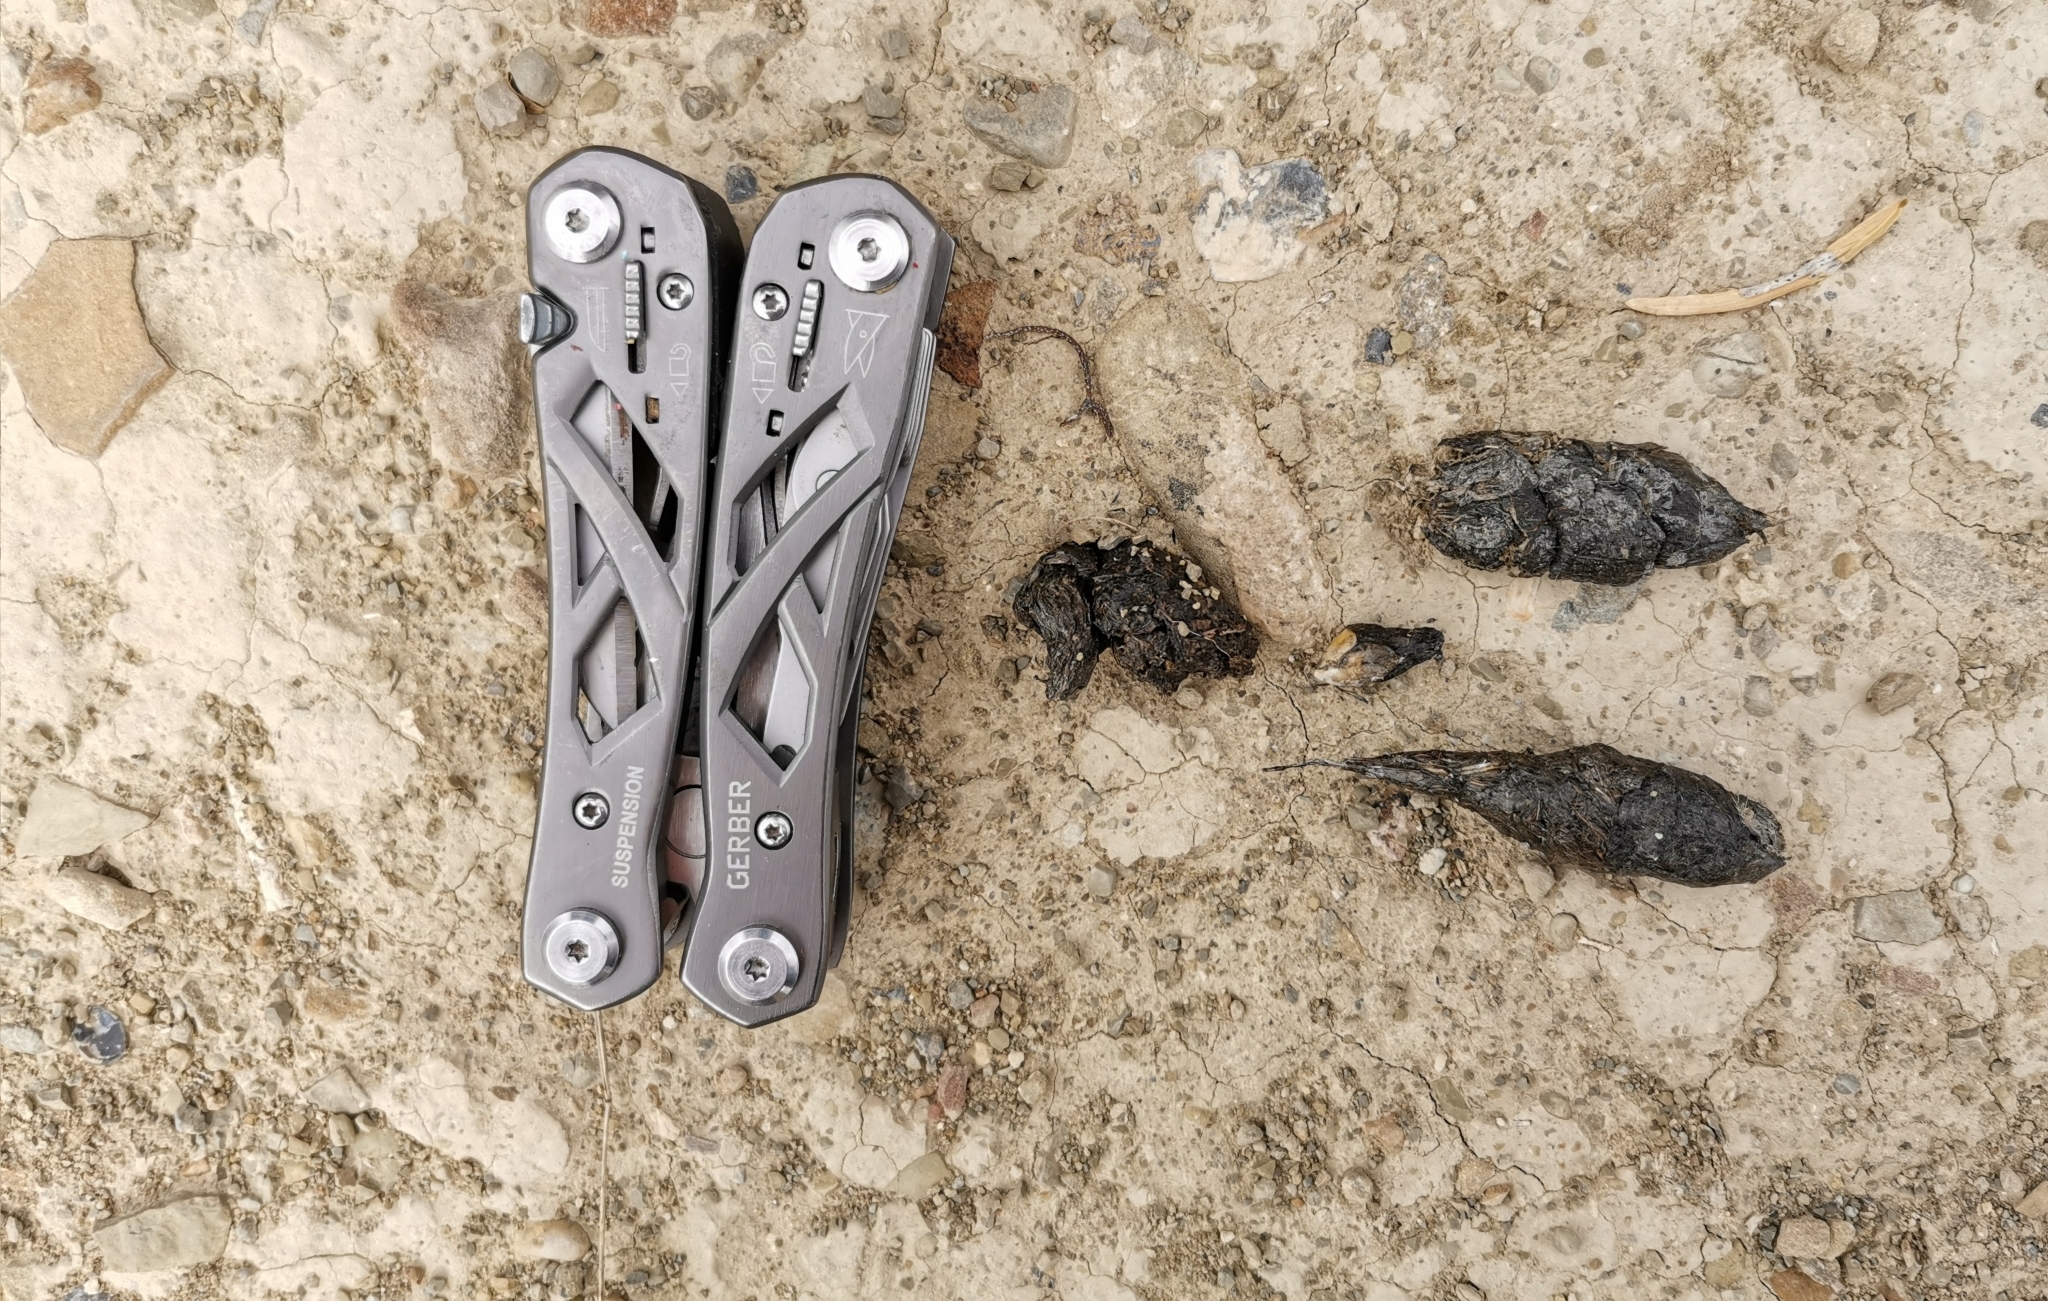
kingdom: Animalia
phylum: Chordata
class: Mammalia
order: Carnivora
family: Canidae
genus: Canis
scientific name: Canis latrans
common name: Coyote
